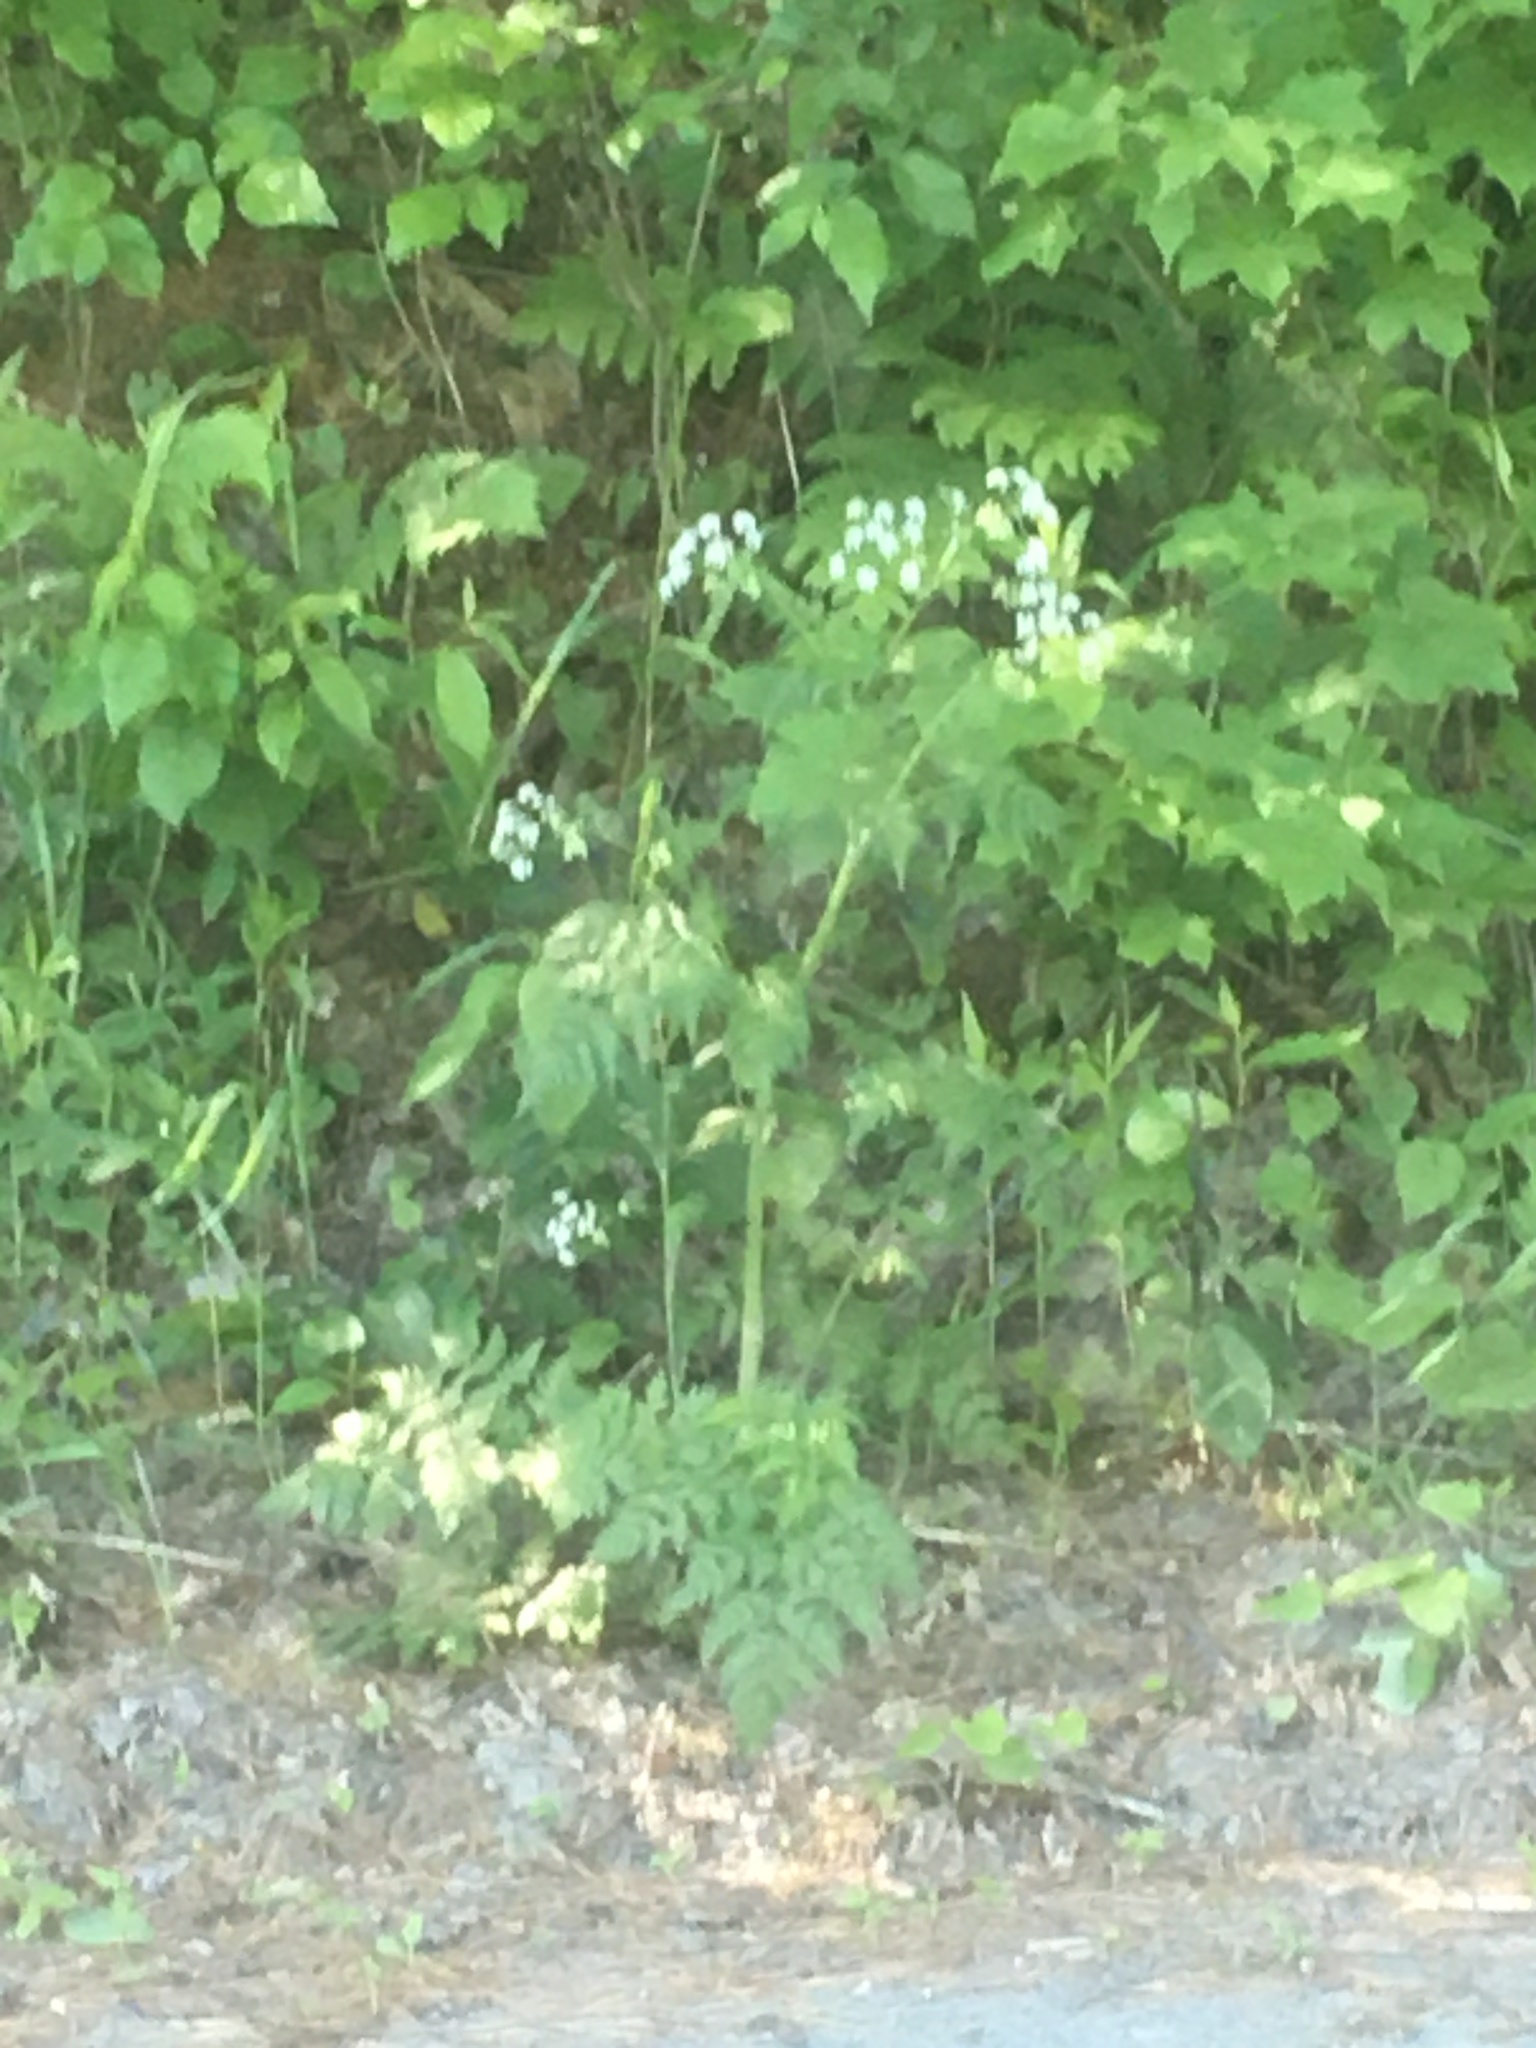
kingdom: Plantae
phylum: Tracheophyta
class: Magnoliopsida
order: Apiales
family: Apiaceae
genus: Anthriscus
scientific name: Anthriscus sylvestris
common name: Cow parsley
